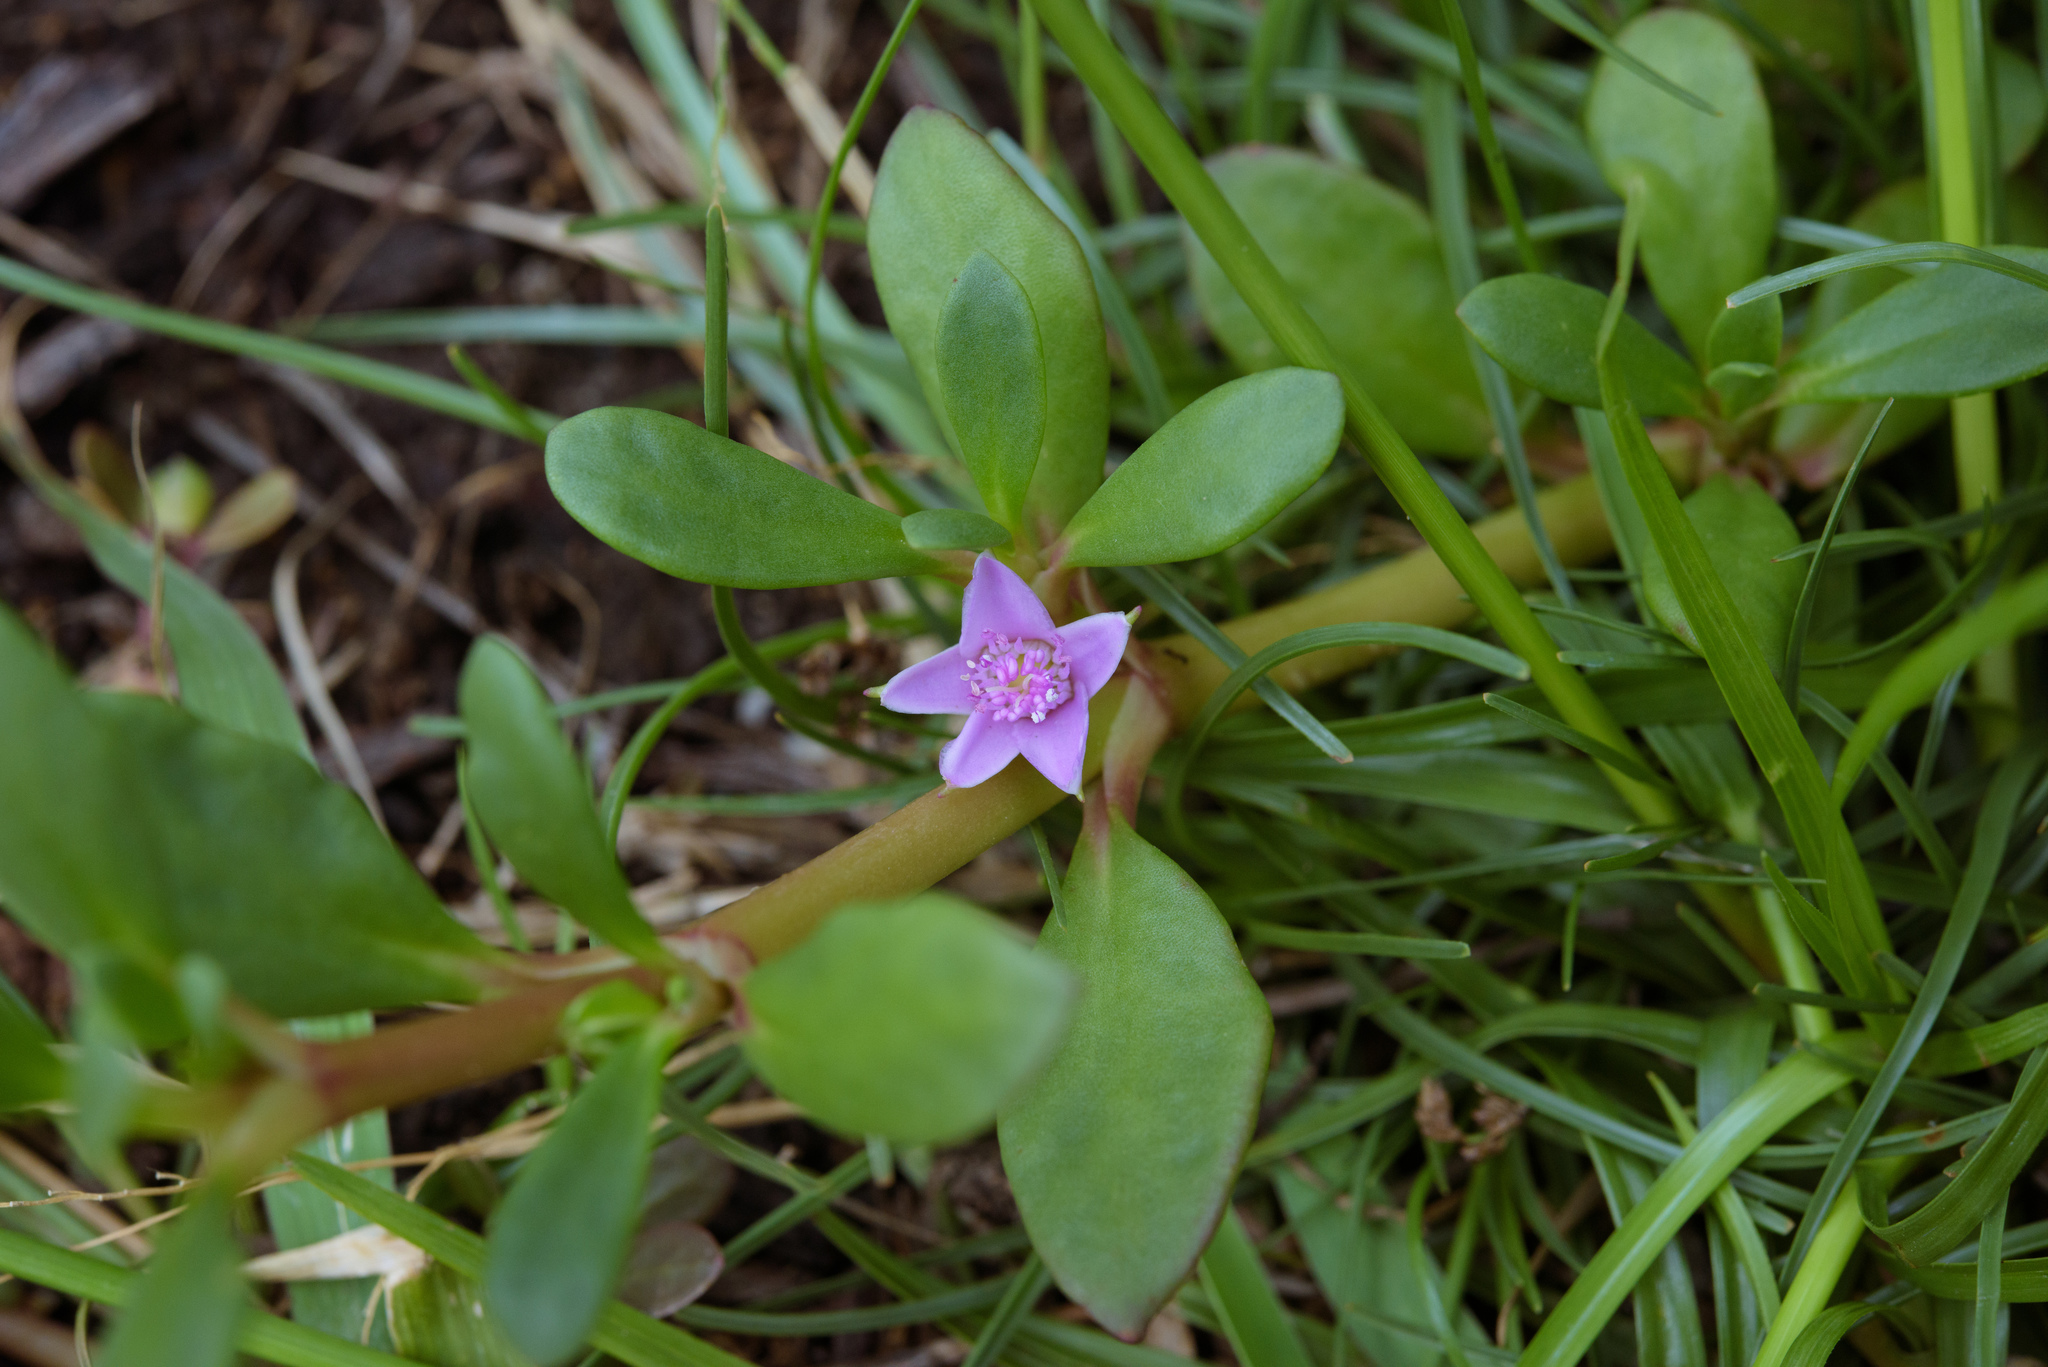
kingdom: Plantae
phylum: Tracheophyta
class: Magnoliopsida
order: Caryophyllales
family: Aizoaceae
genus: Sesuvium
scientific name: Sesuvium portulacastrum
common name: Sea-purslane
